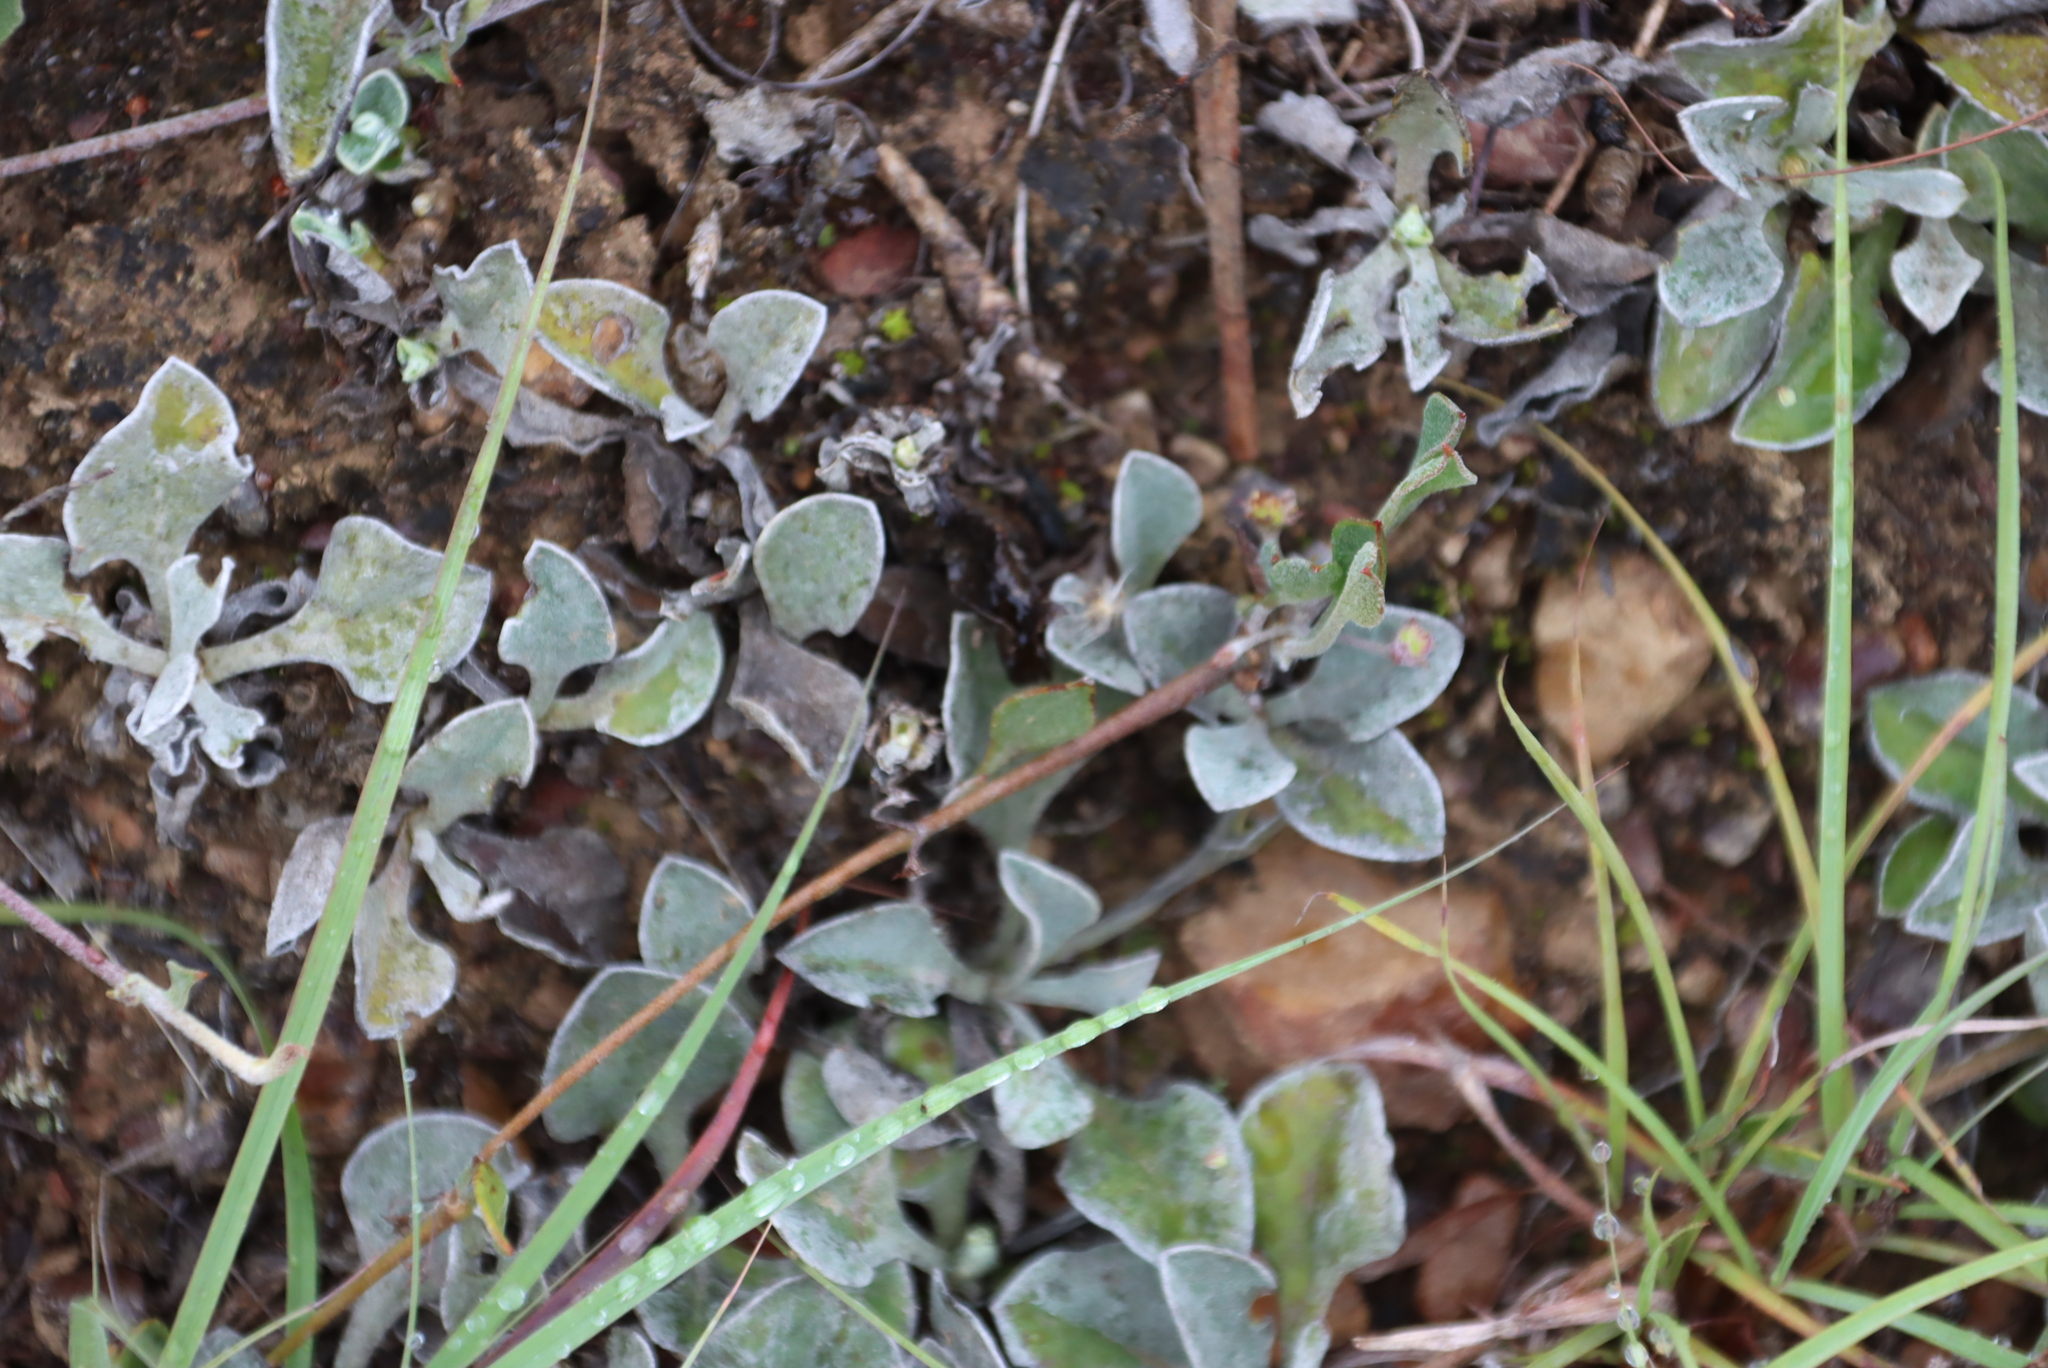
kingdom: Plantae
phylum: Tracheophyta
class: Magnoliopsida
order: Asterales
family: Asteraceae
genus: Osteospermum
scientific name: Osteospermum tomentosum
